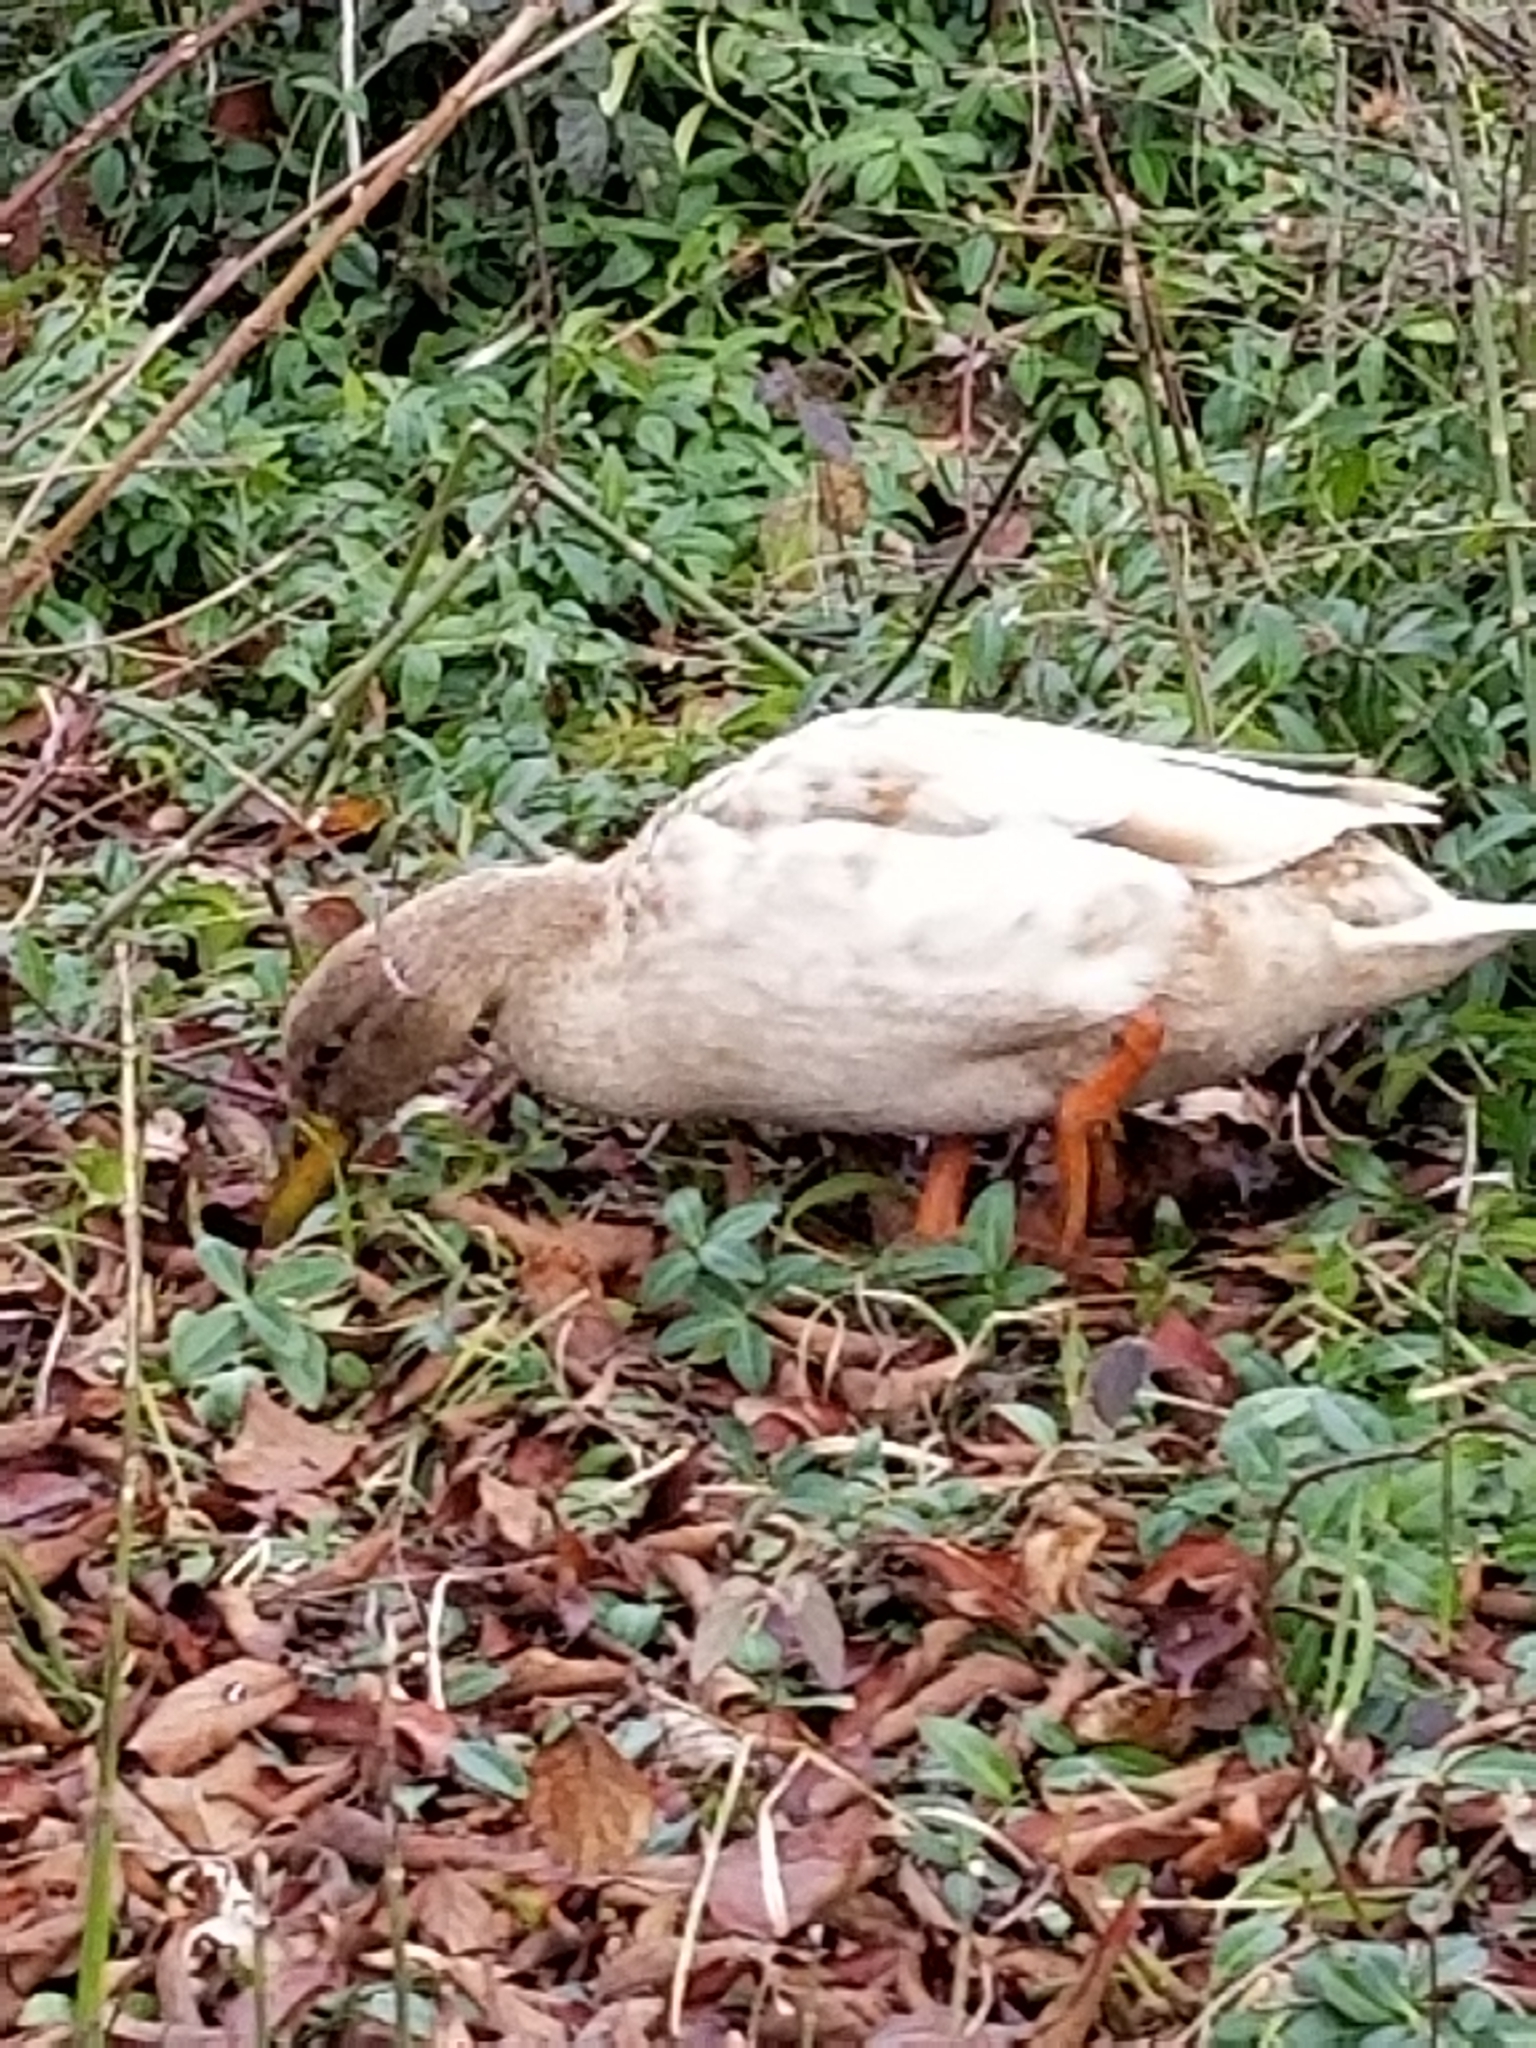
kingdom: Animalia
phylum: Chordata
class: Aves
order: Anseriformes
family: Anatidae
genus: Anas
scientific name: Anas platyrhynchos
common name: Mallard
